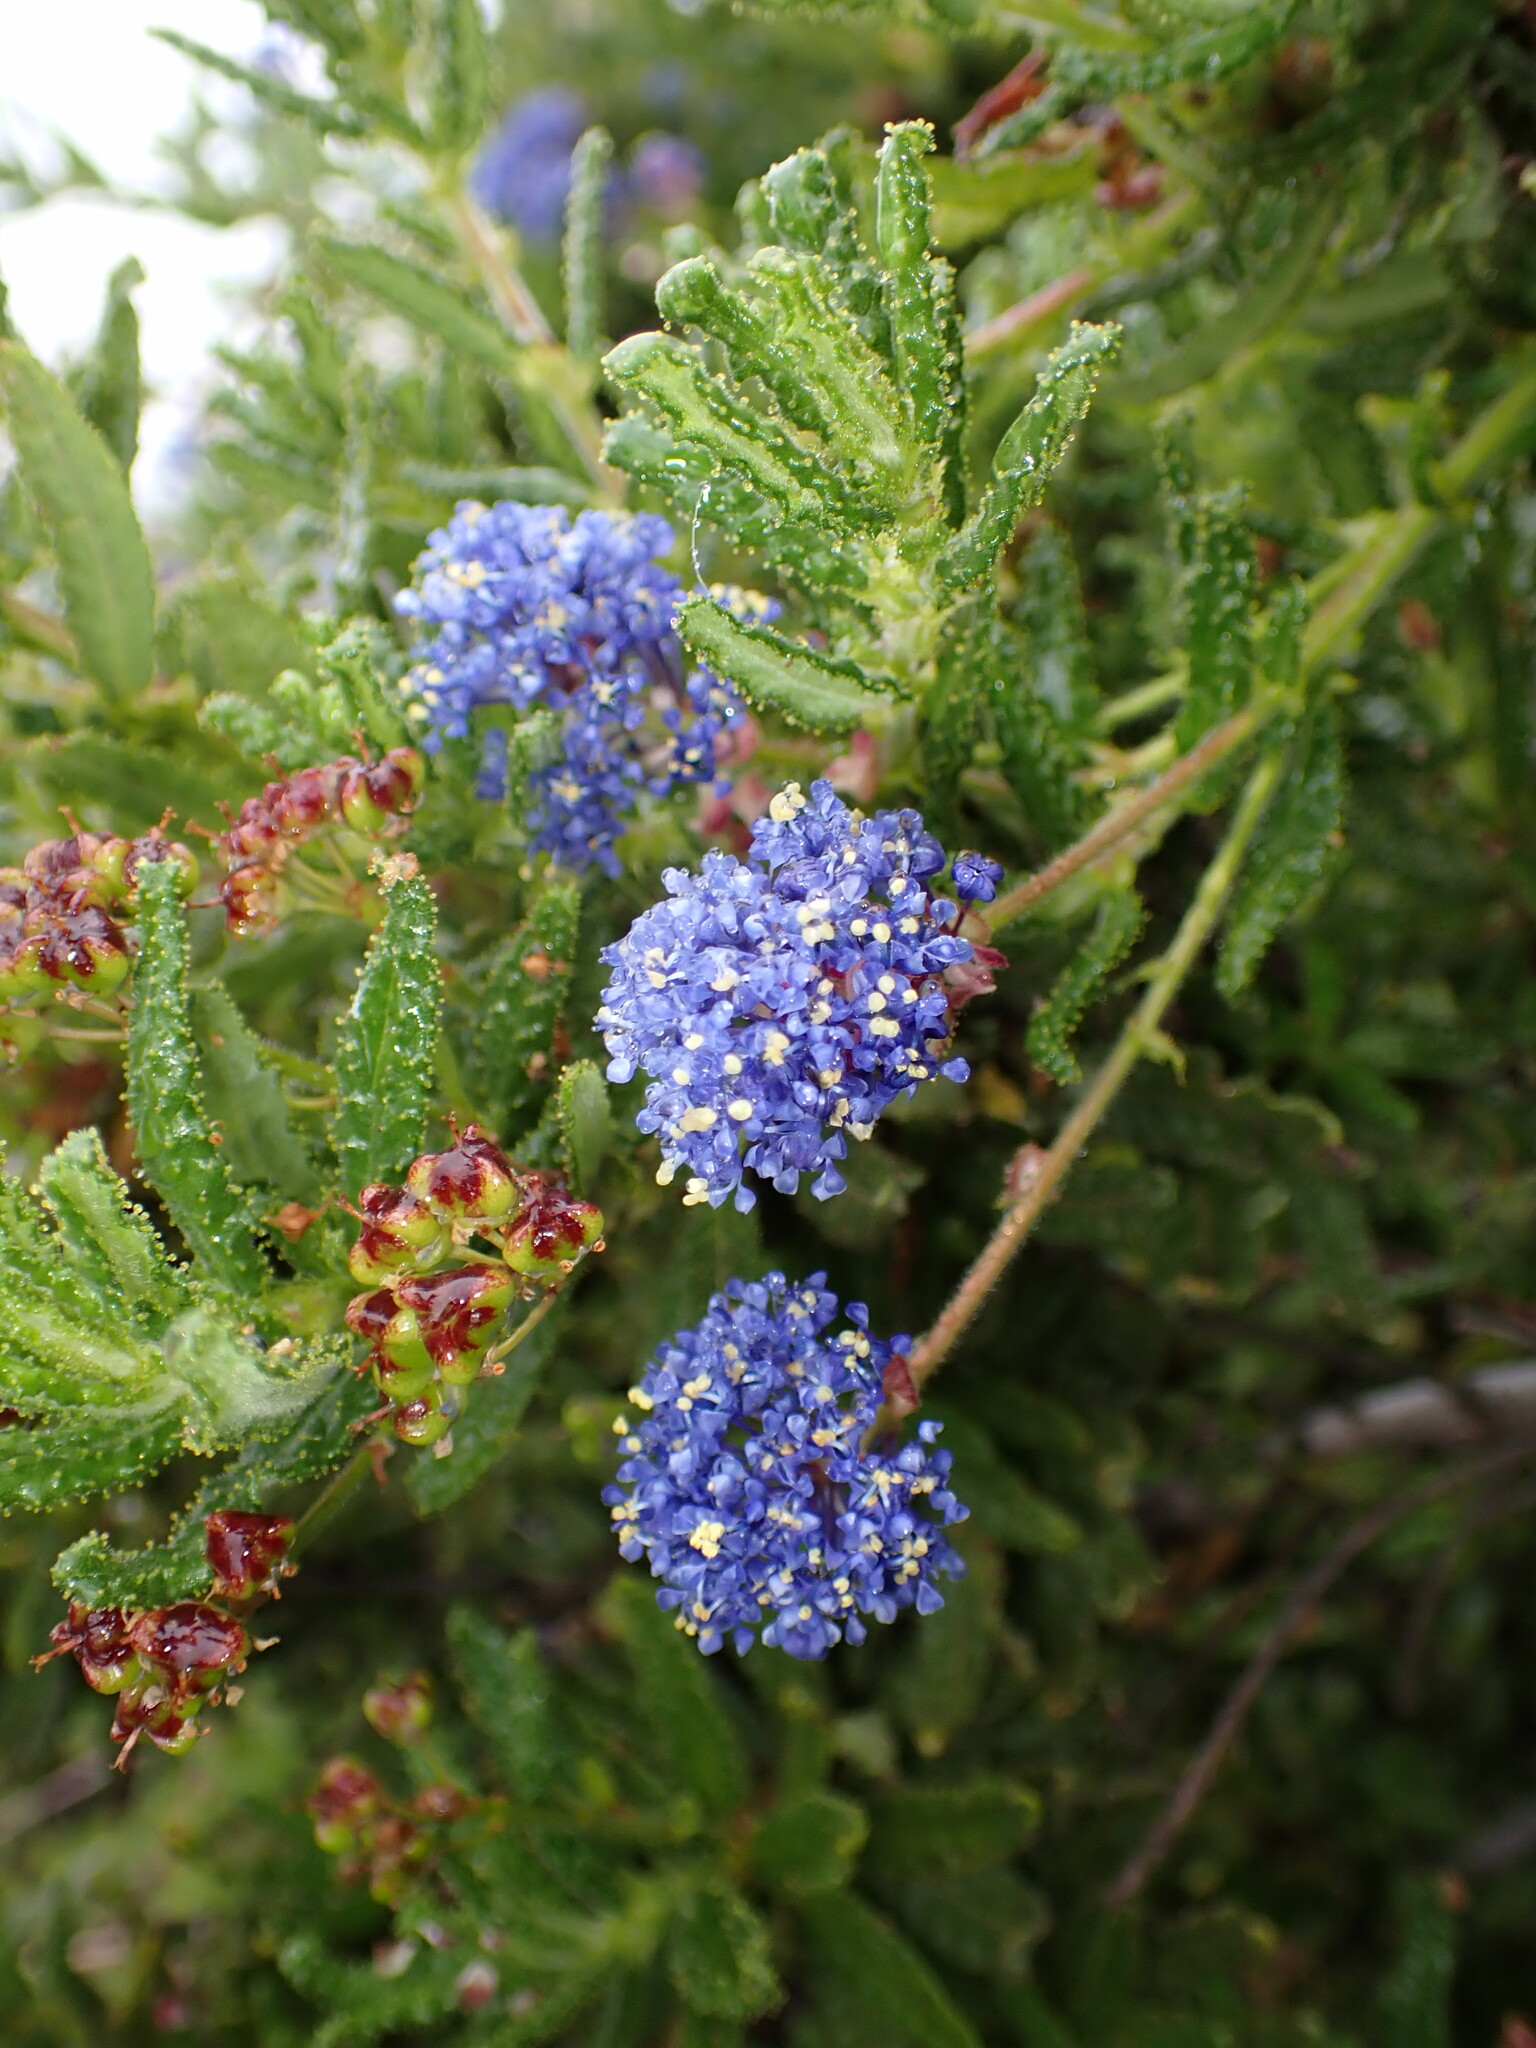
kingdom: Plantae
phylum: Tracheophyta
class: Magnoliopsida
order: Rosales
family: Rhamnaceae
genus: Ceanothus
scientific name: Ceanothus papillosus
